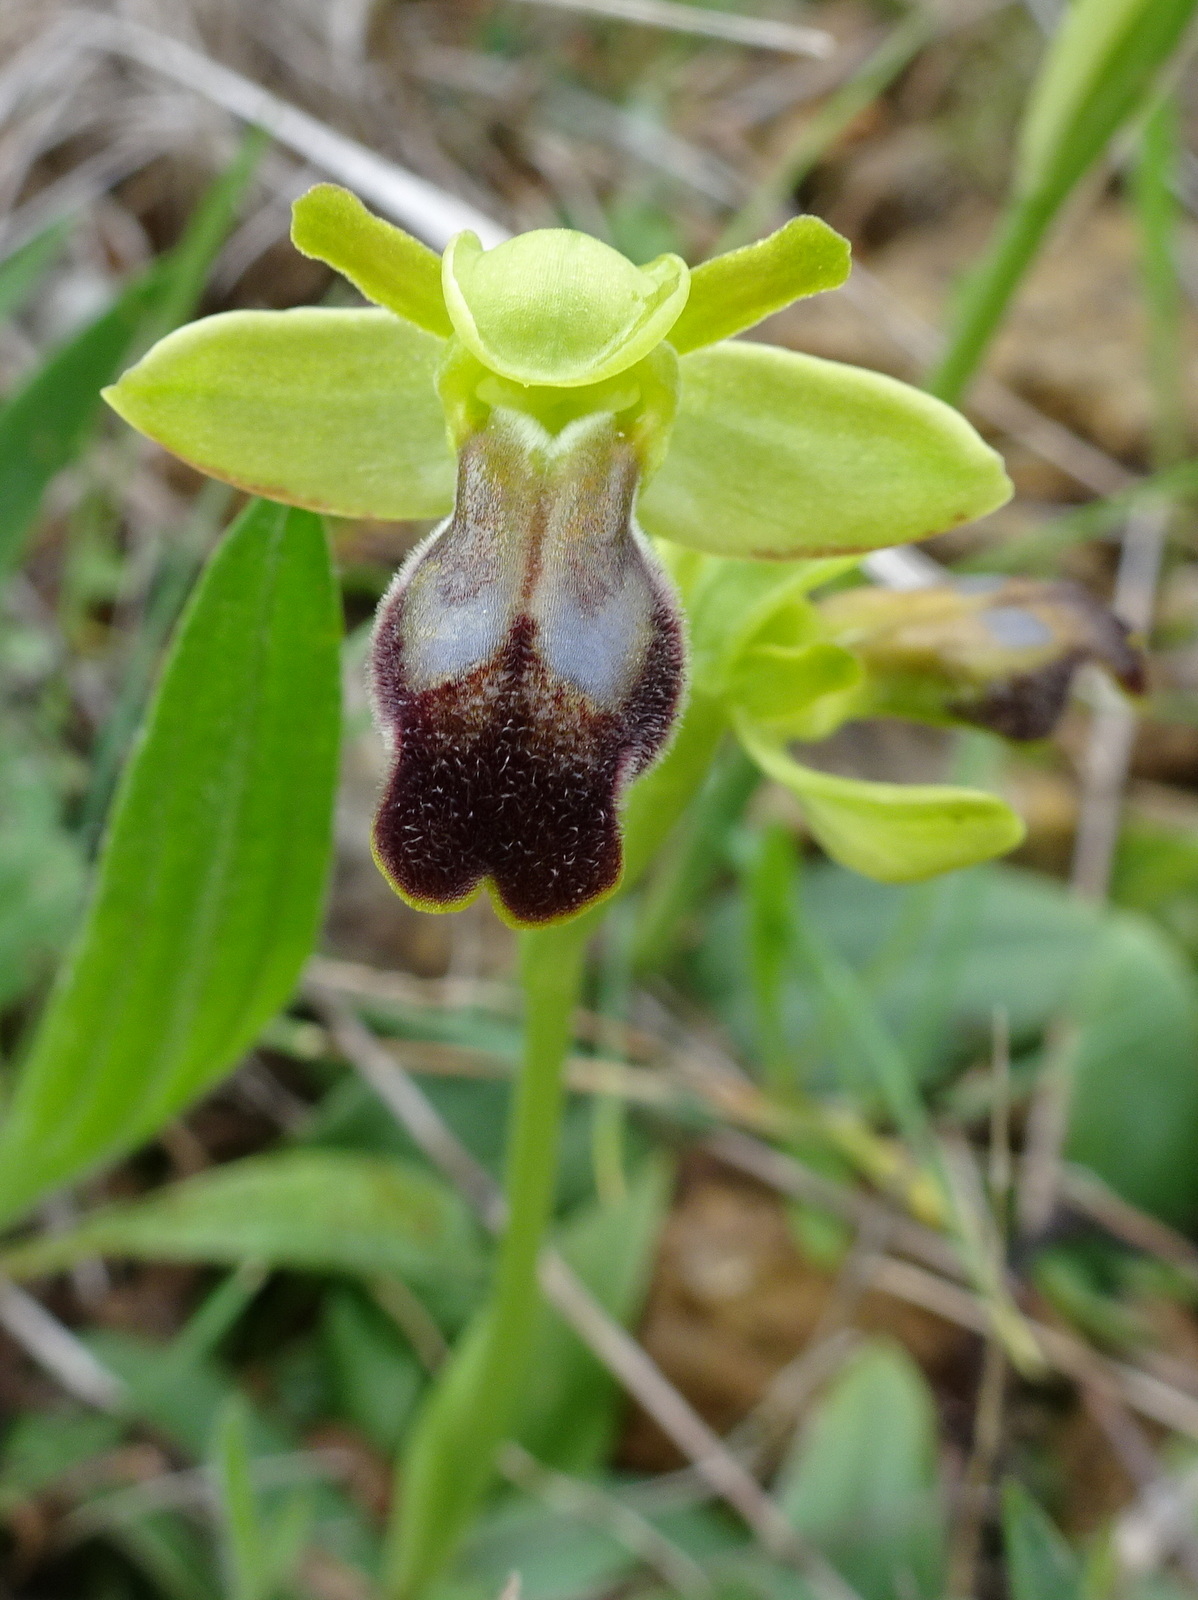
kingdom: Plantae
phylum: Tracheophyta
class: Liliopsida
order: Asparagales
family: Orchidaceae
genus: Ophrys
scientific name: Ophrys fusca
